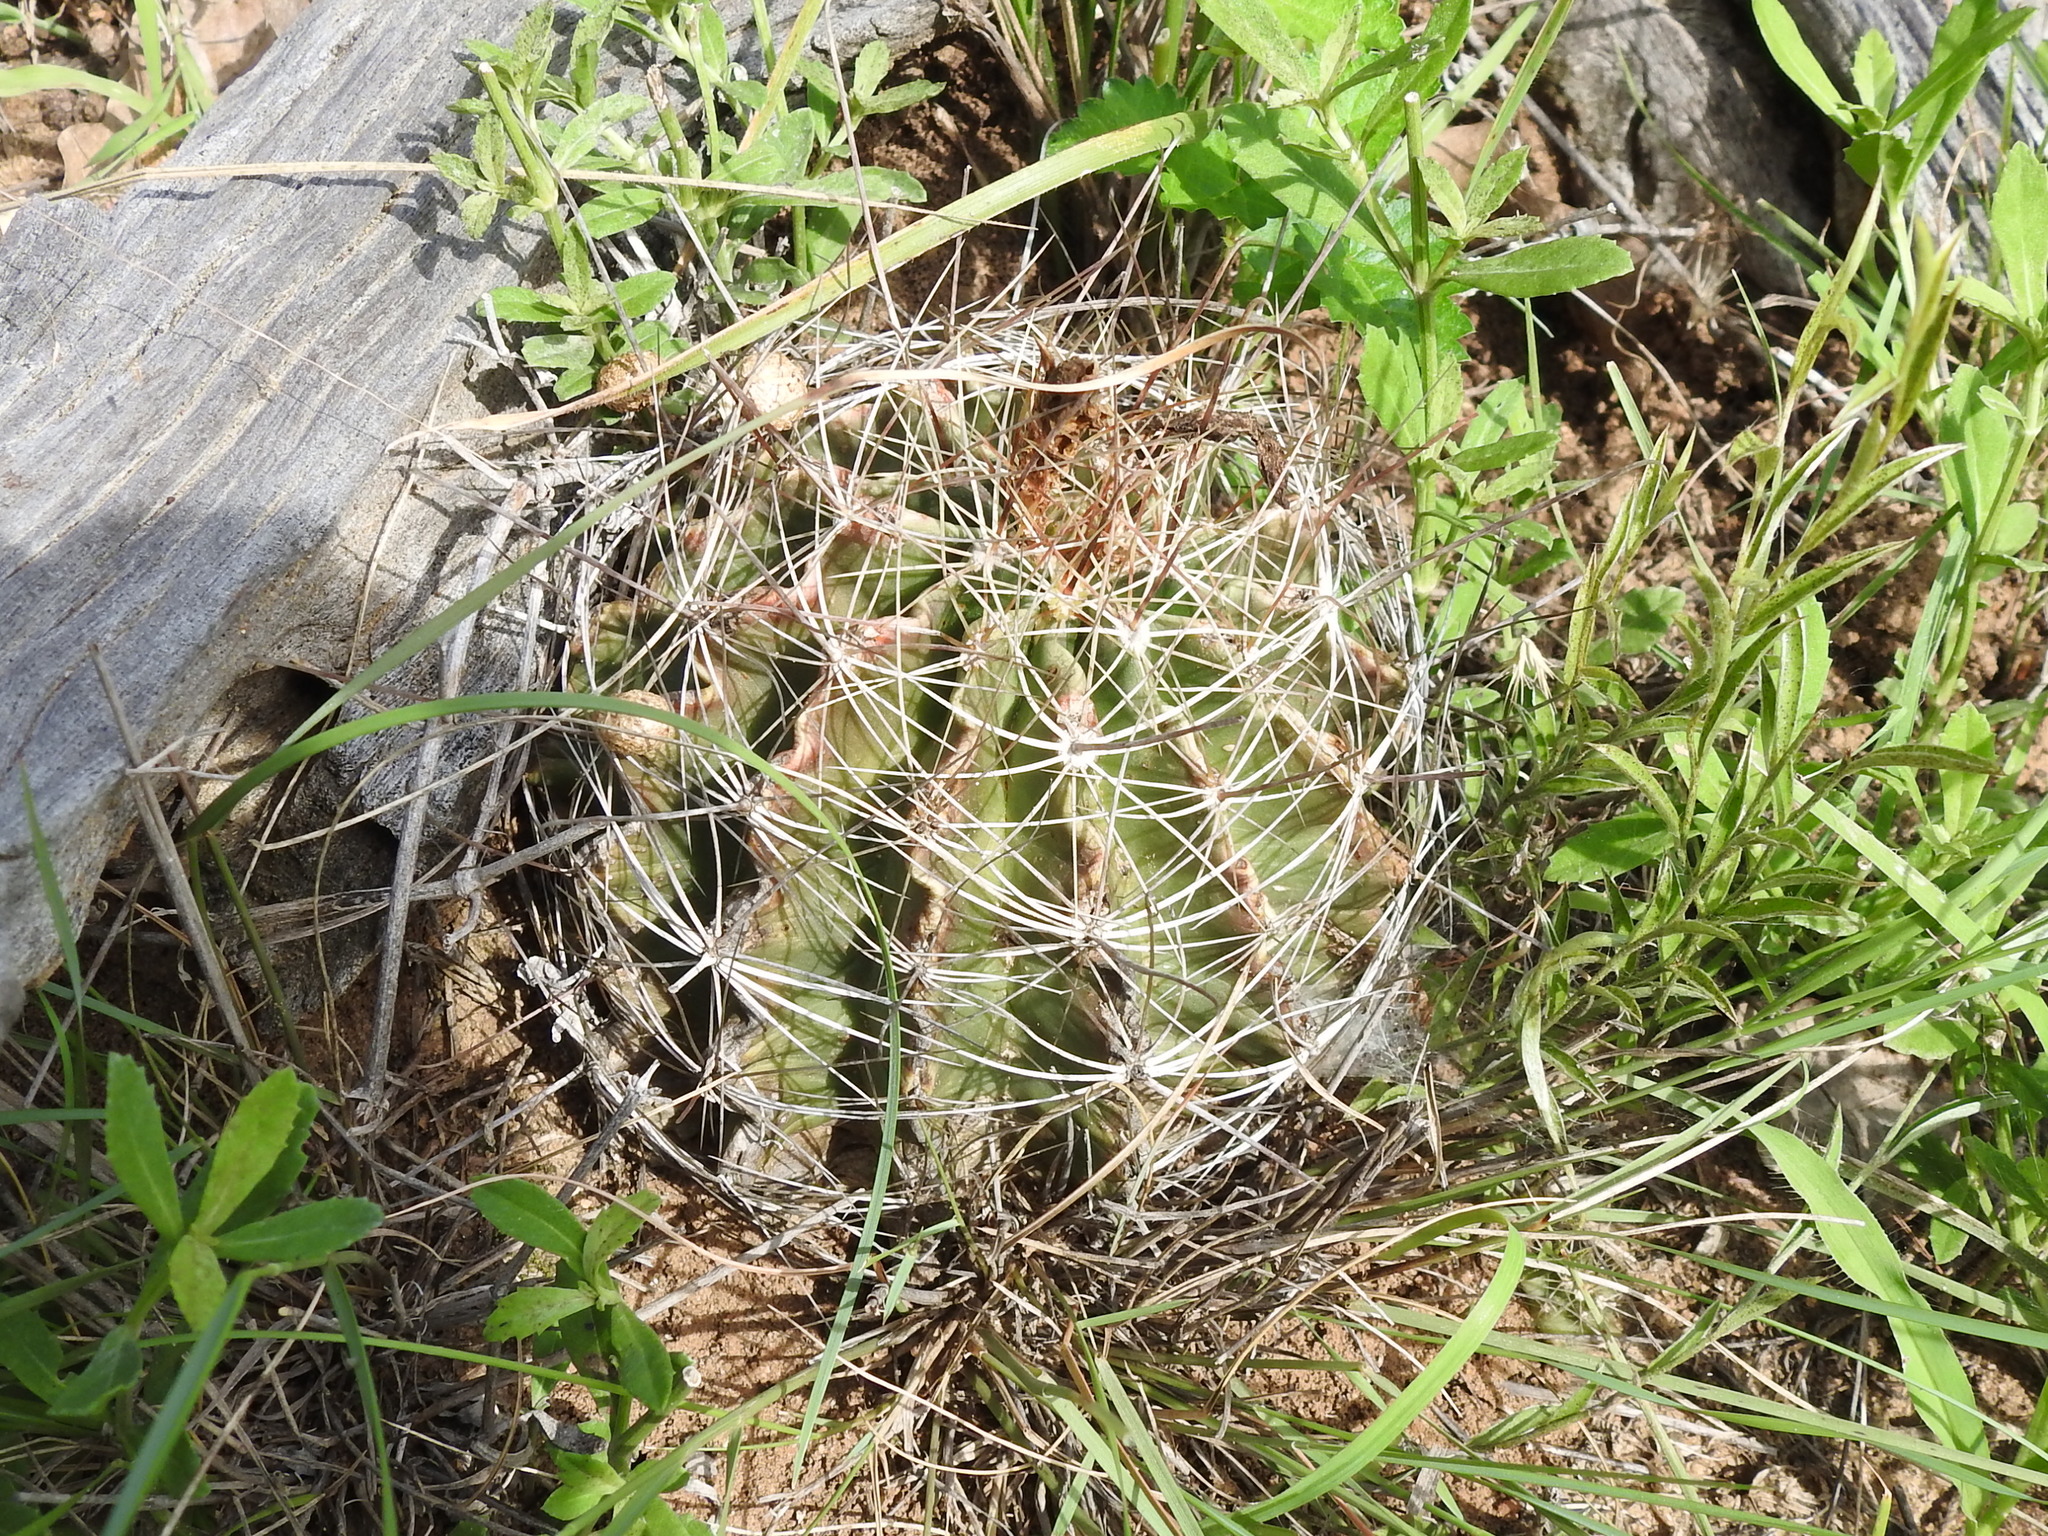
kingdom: Plantae
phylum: Tracheophyta
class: Magnoliopsida
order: Caryophyllales
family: Cactaceae
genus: Thelocactus
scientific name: Thelocactus setispinus
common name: Miniature barrel cactus
